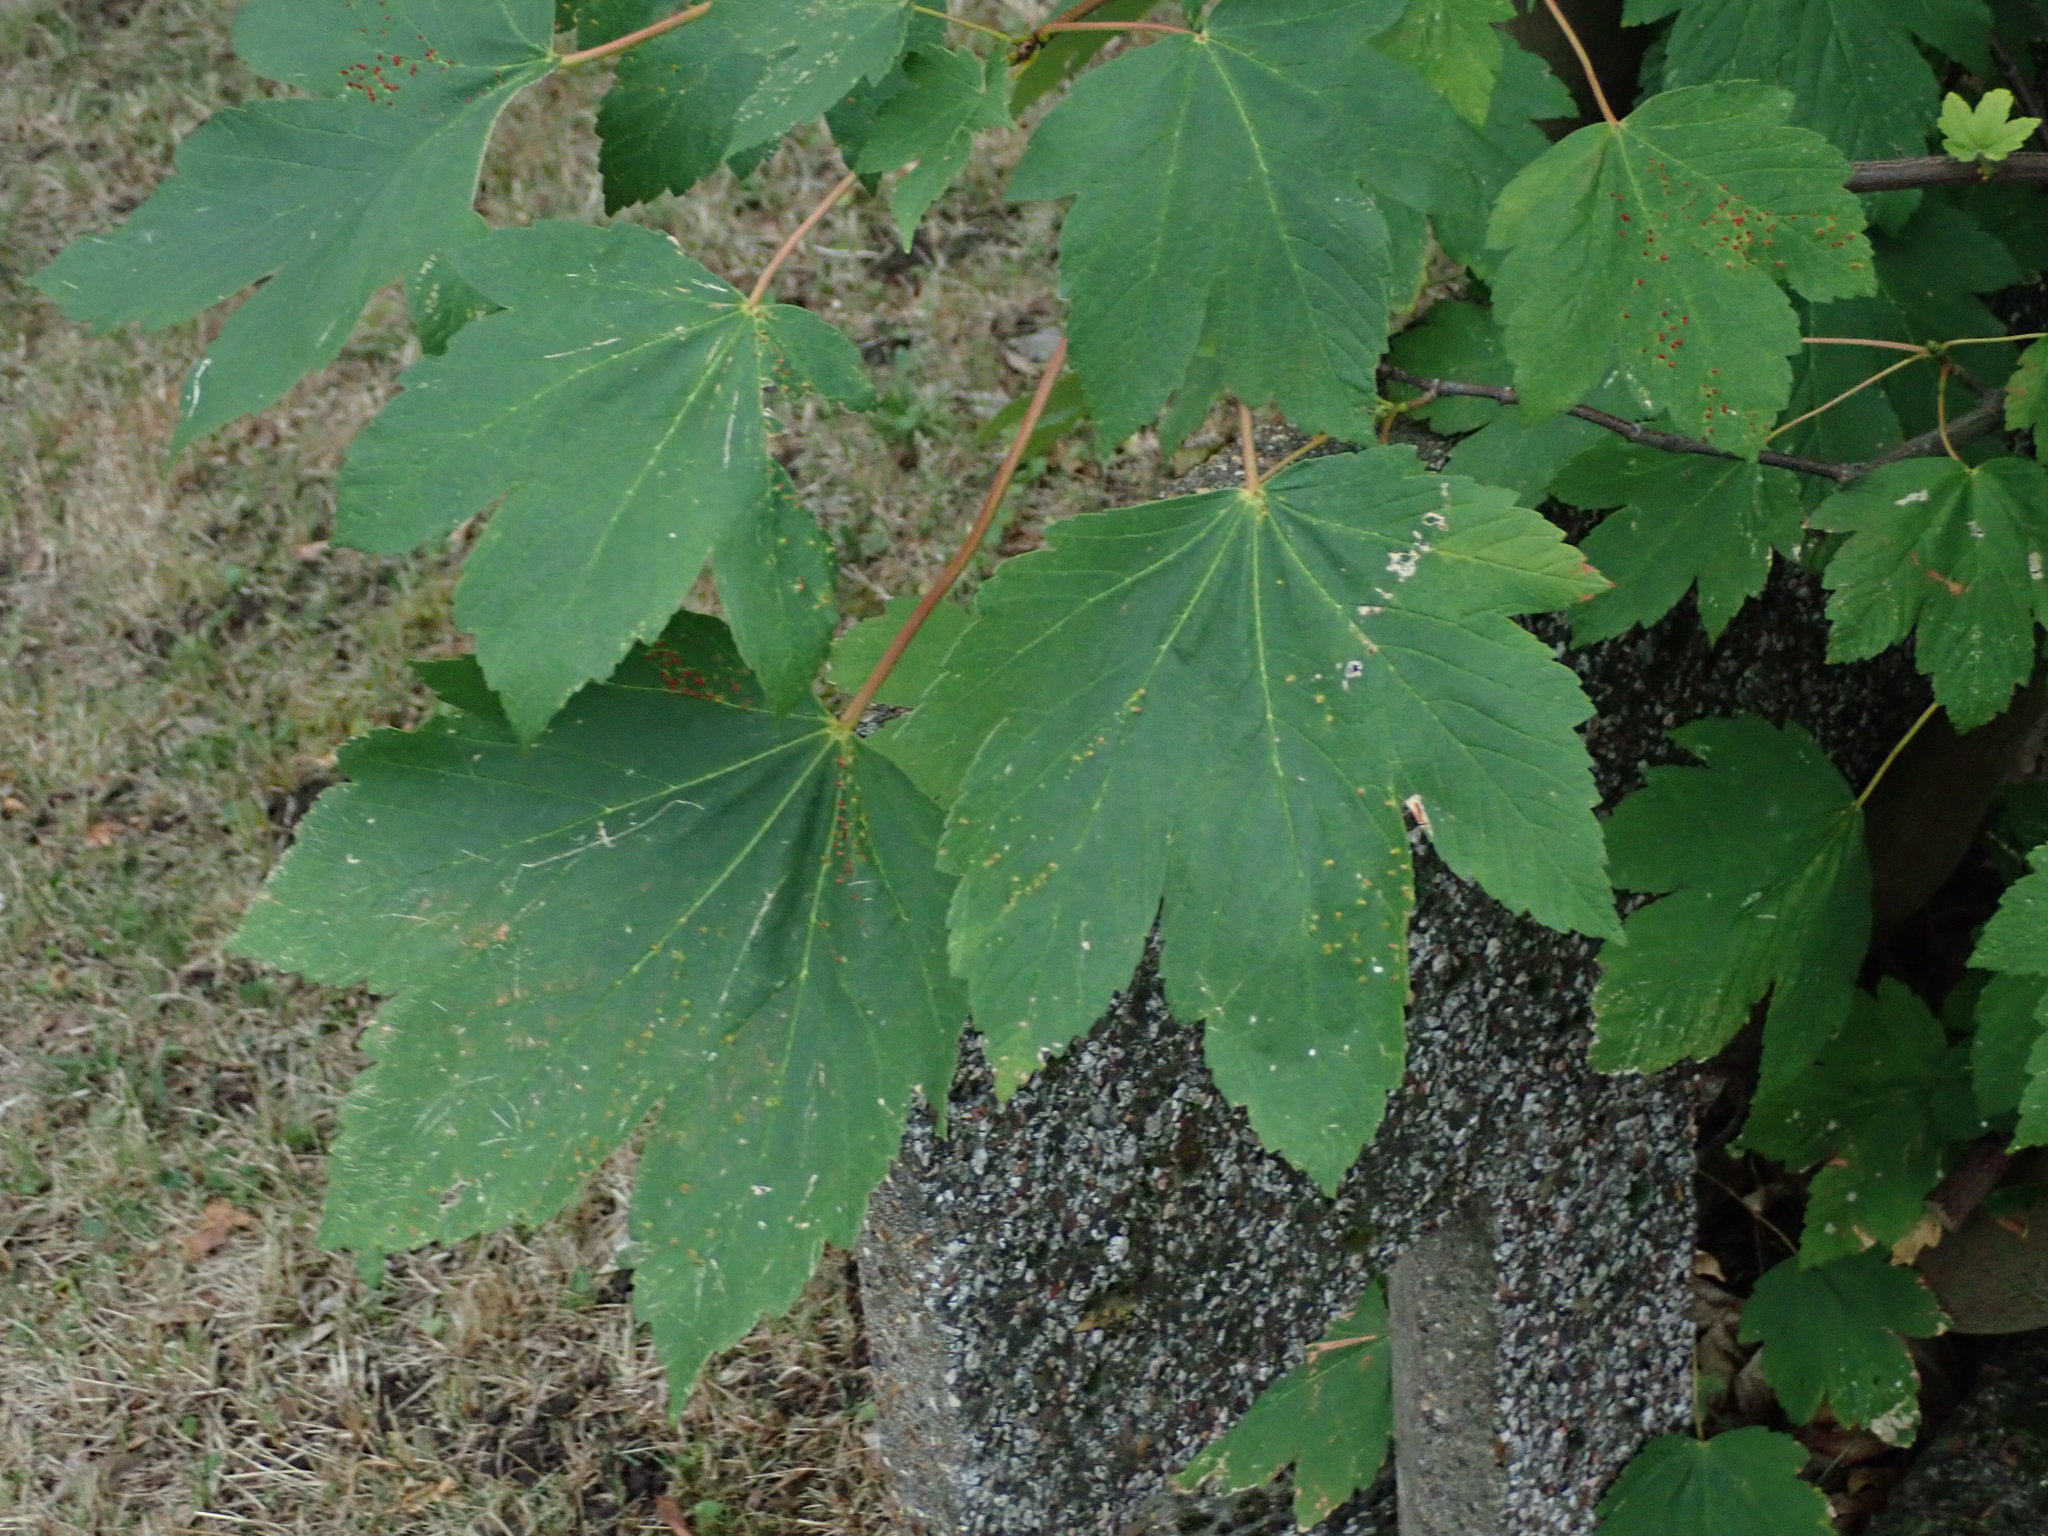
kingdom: Plantae
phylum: Tracheophyta
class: Magnoliopsida
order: Sapindales
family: Sapindaceae
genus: Acer
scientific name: Acer pseudoplatanus
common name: Sycamore
